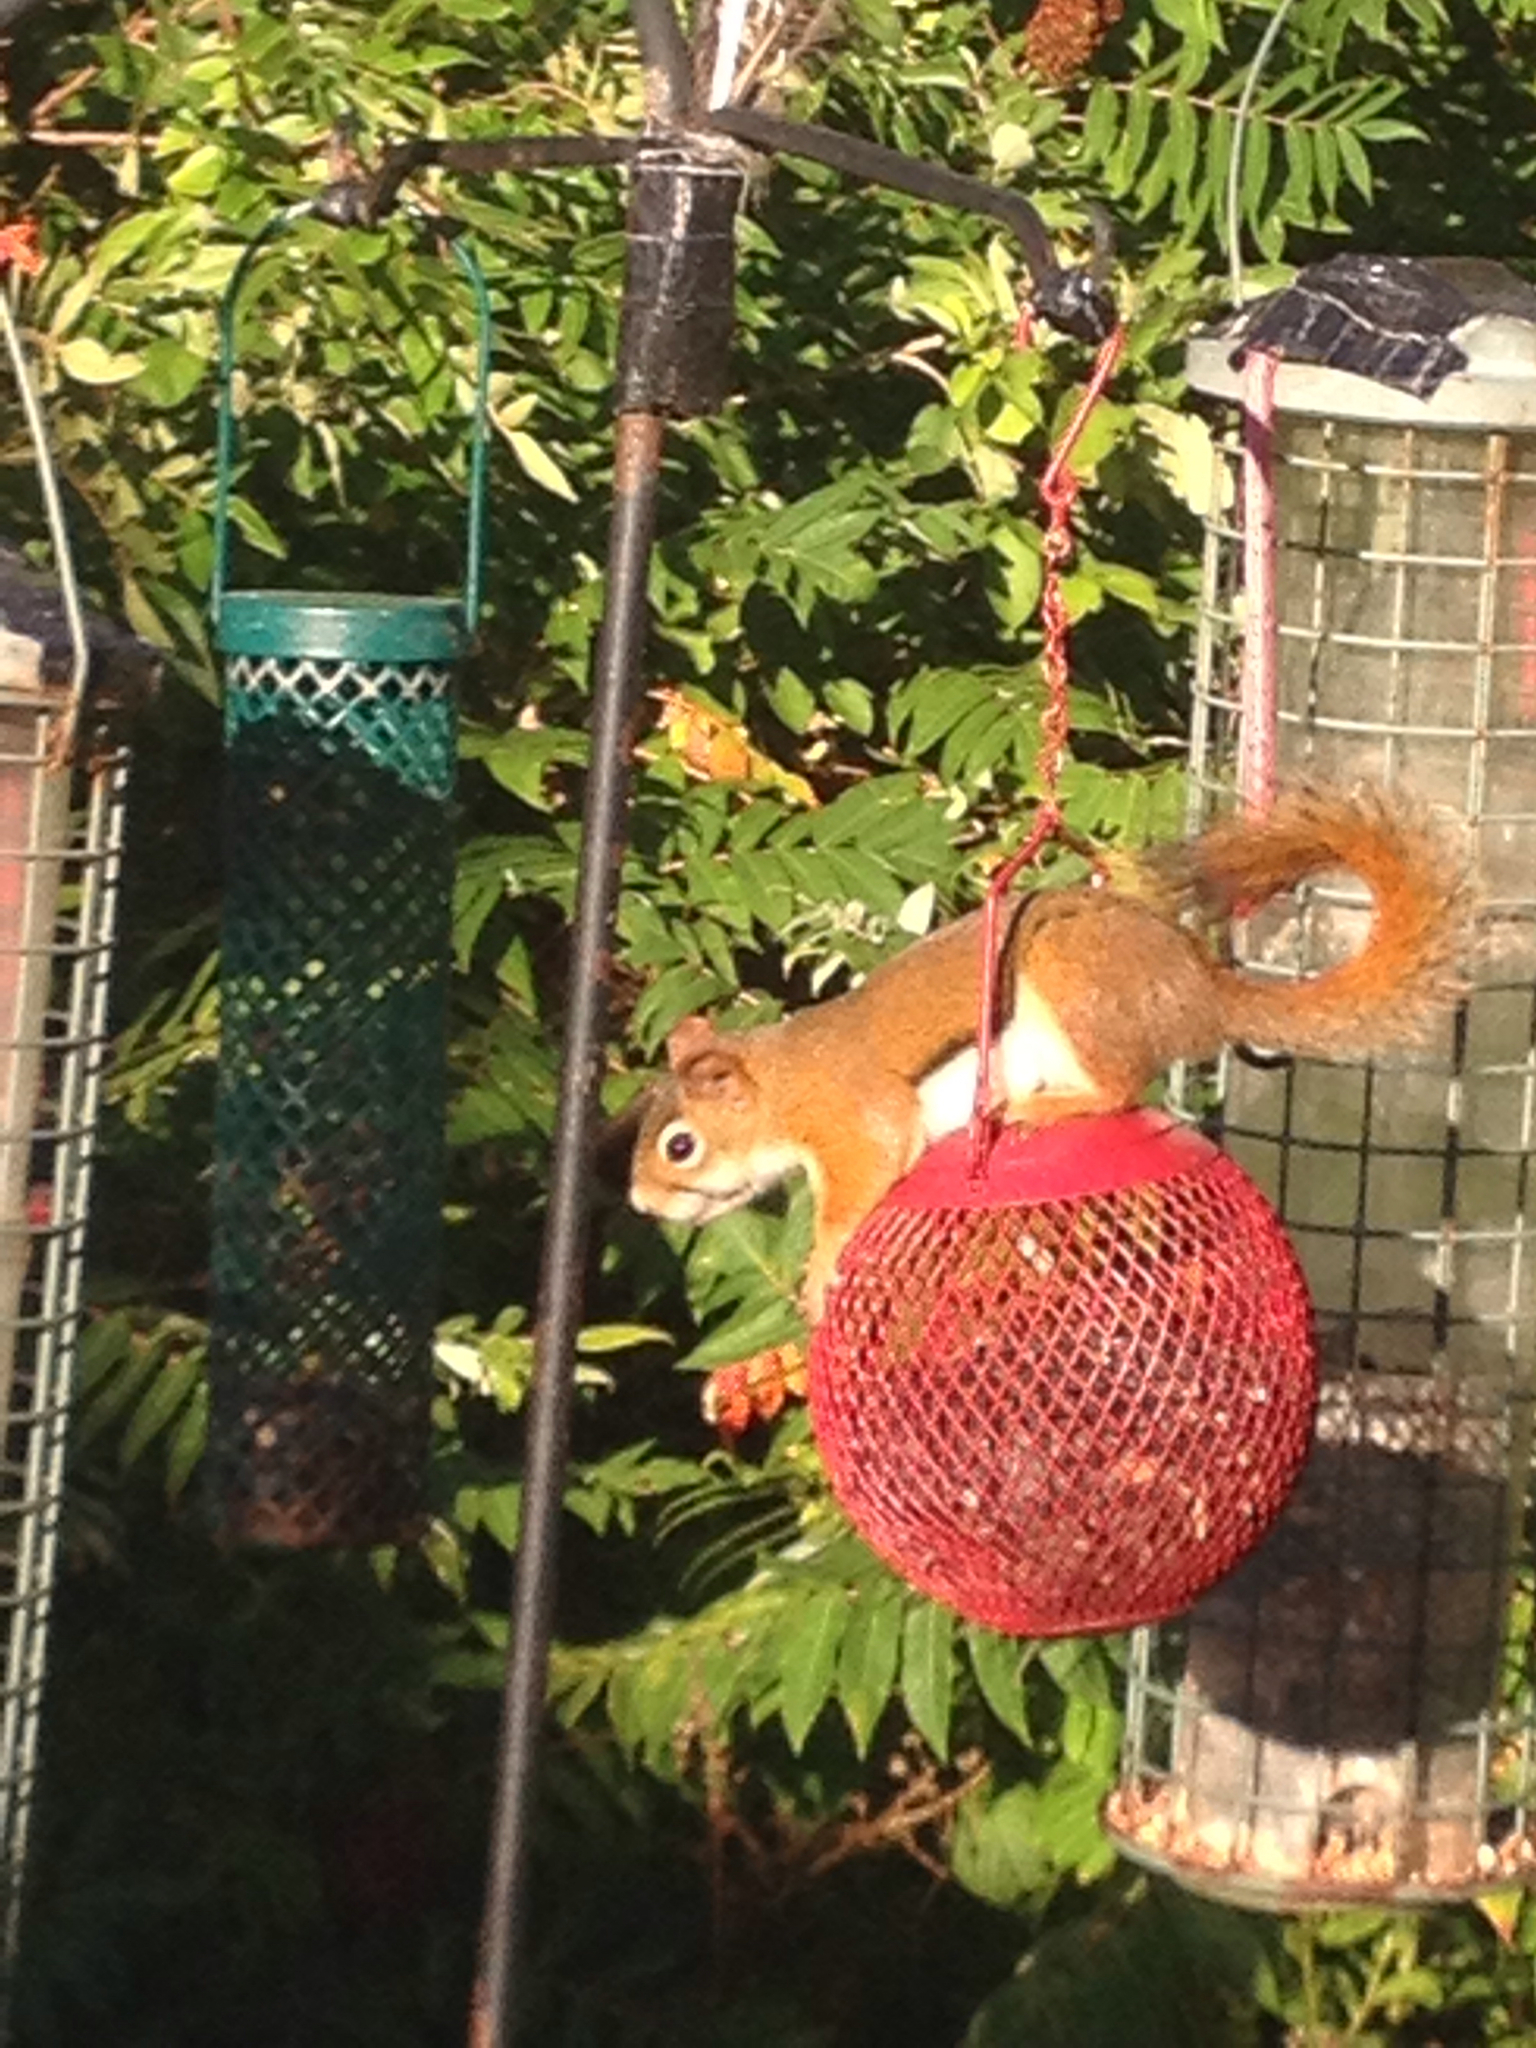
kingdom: Animalia
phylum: Chordata
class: Mammalia
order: Rodentia
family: Sciuridae
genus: Tamiasciurus
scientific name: Tamiasciurus hudsonicus
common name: Red squirrel
